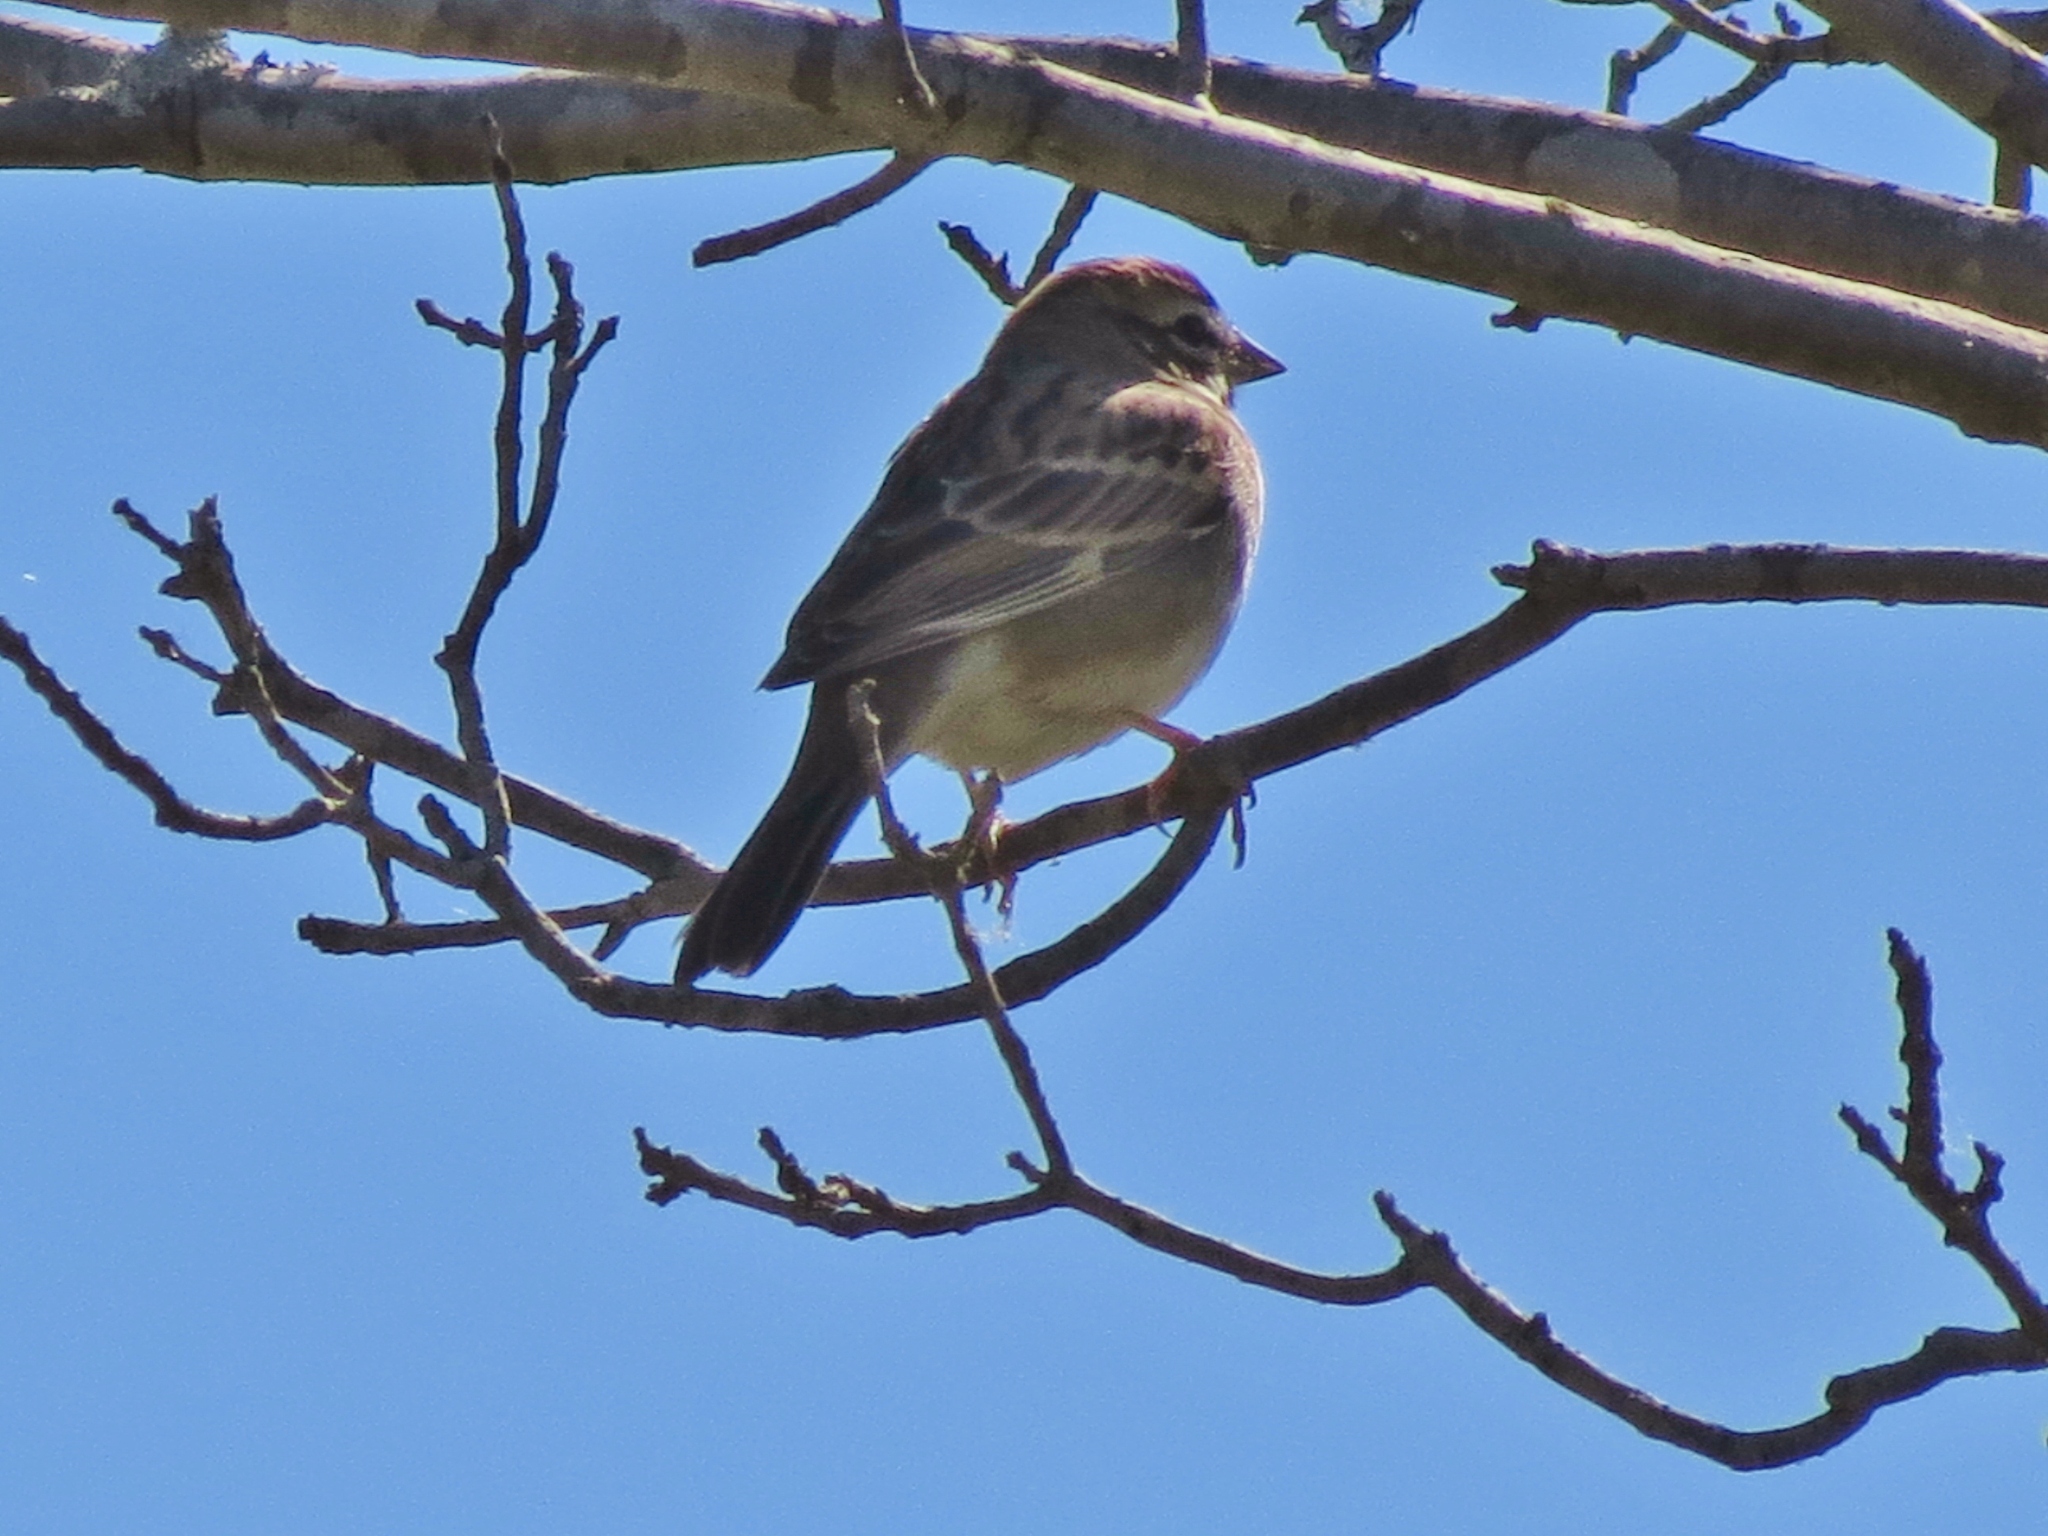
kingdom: Animalia
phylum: Chordata
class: Aves
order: Passeriformes
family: Passerellidae
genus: Chondestes
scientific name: Chondestes grammacus
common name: Lark sparrow
